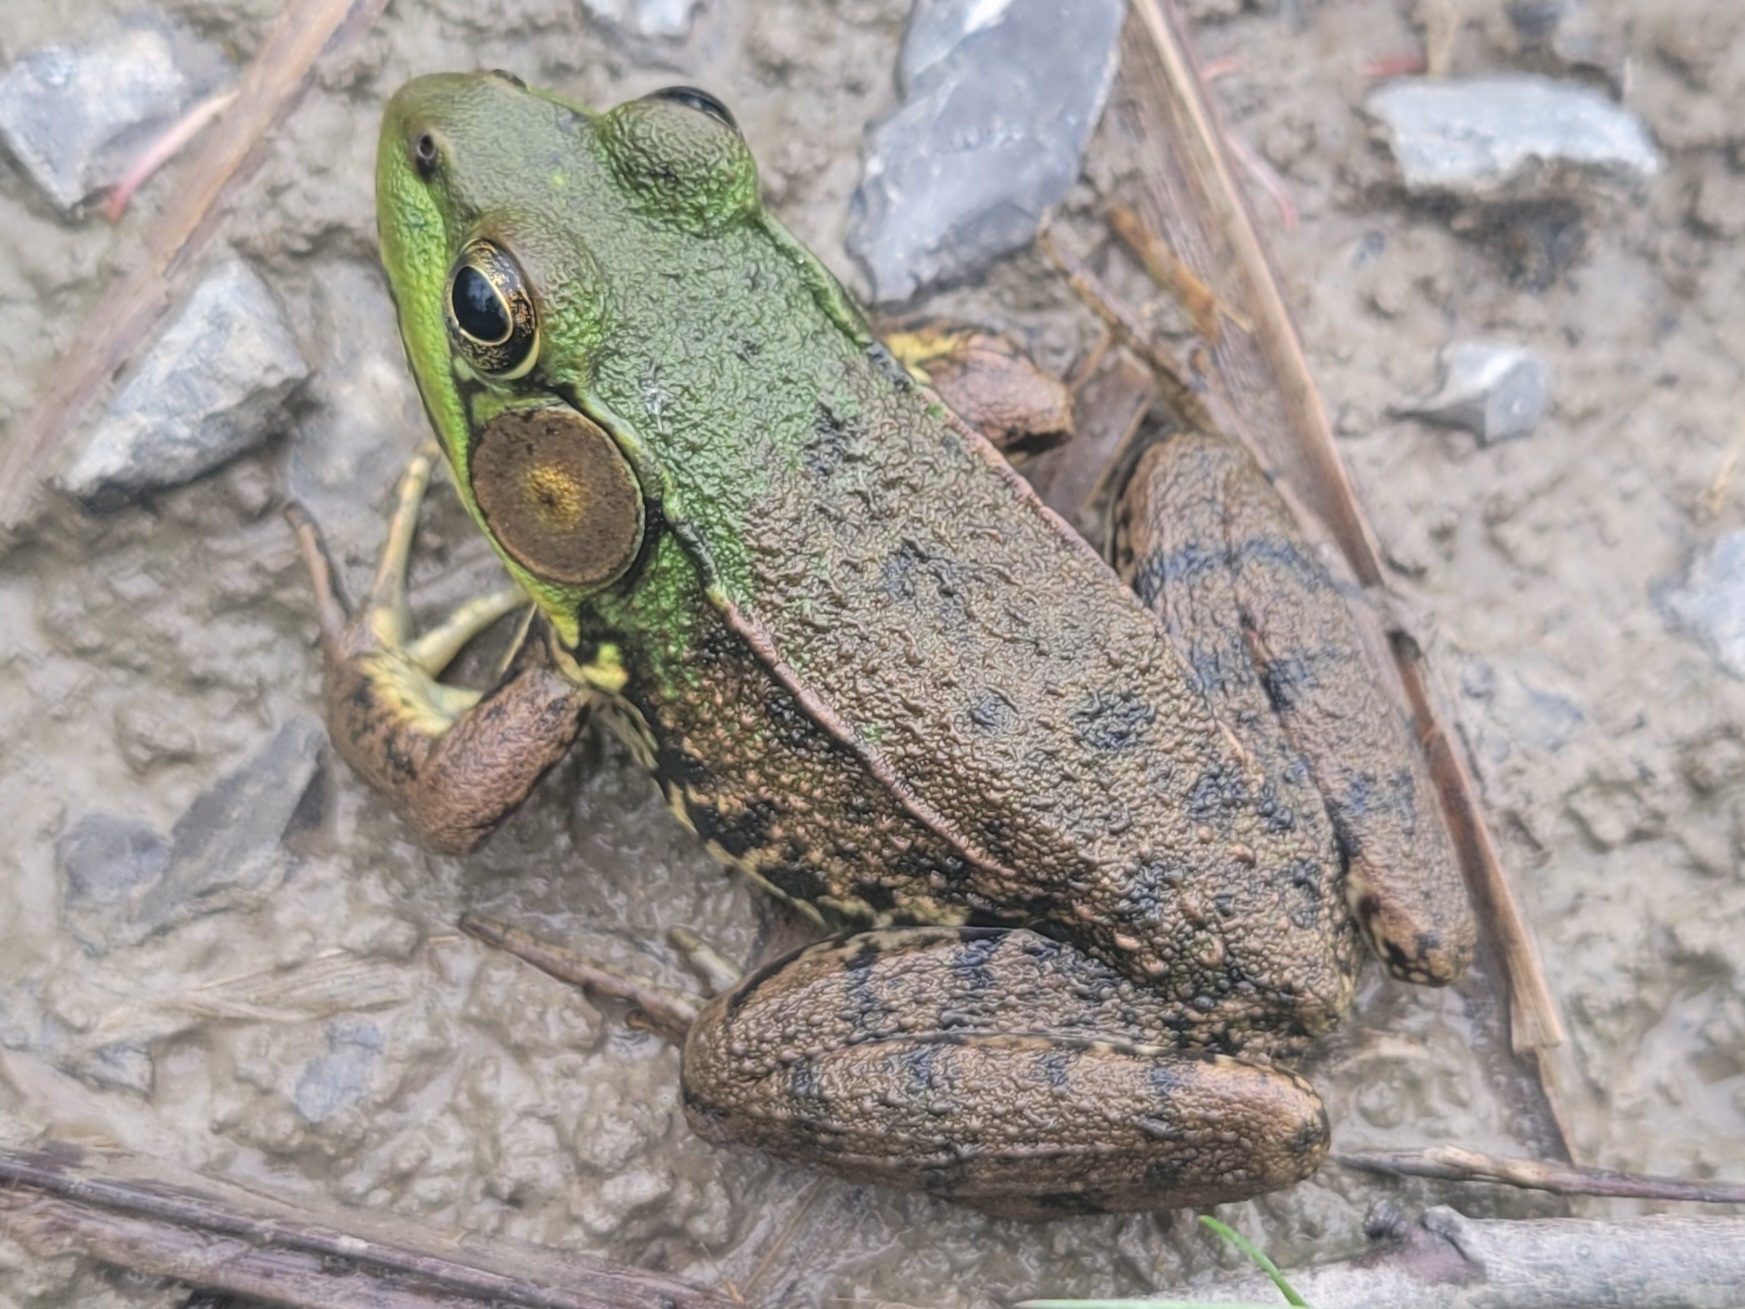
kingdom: Animalia
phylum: Chordata
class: Amphibia
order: Anura
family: Ranidae
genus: Lithobates
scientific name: Lithobates clamitans
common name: Green frog
